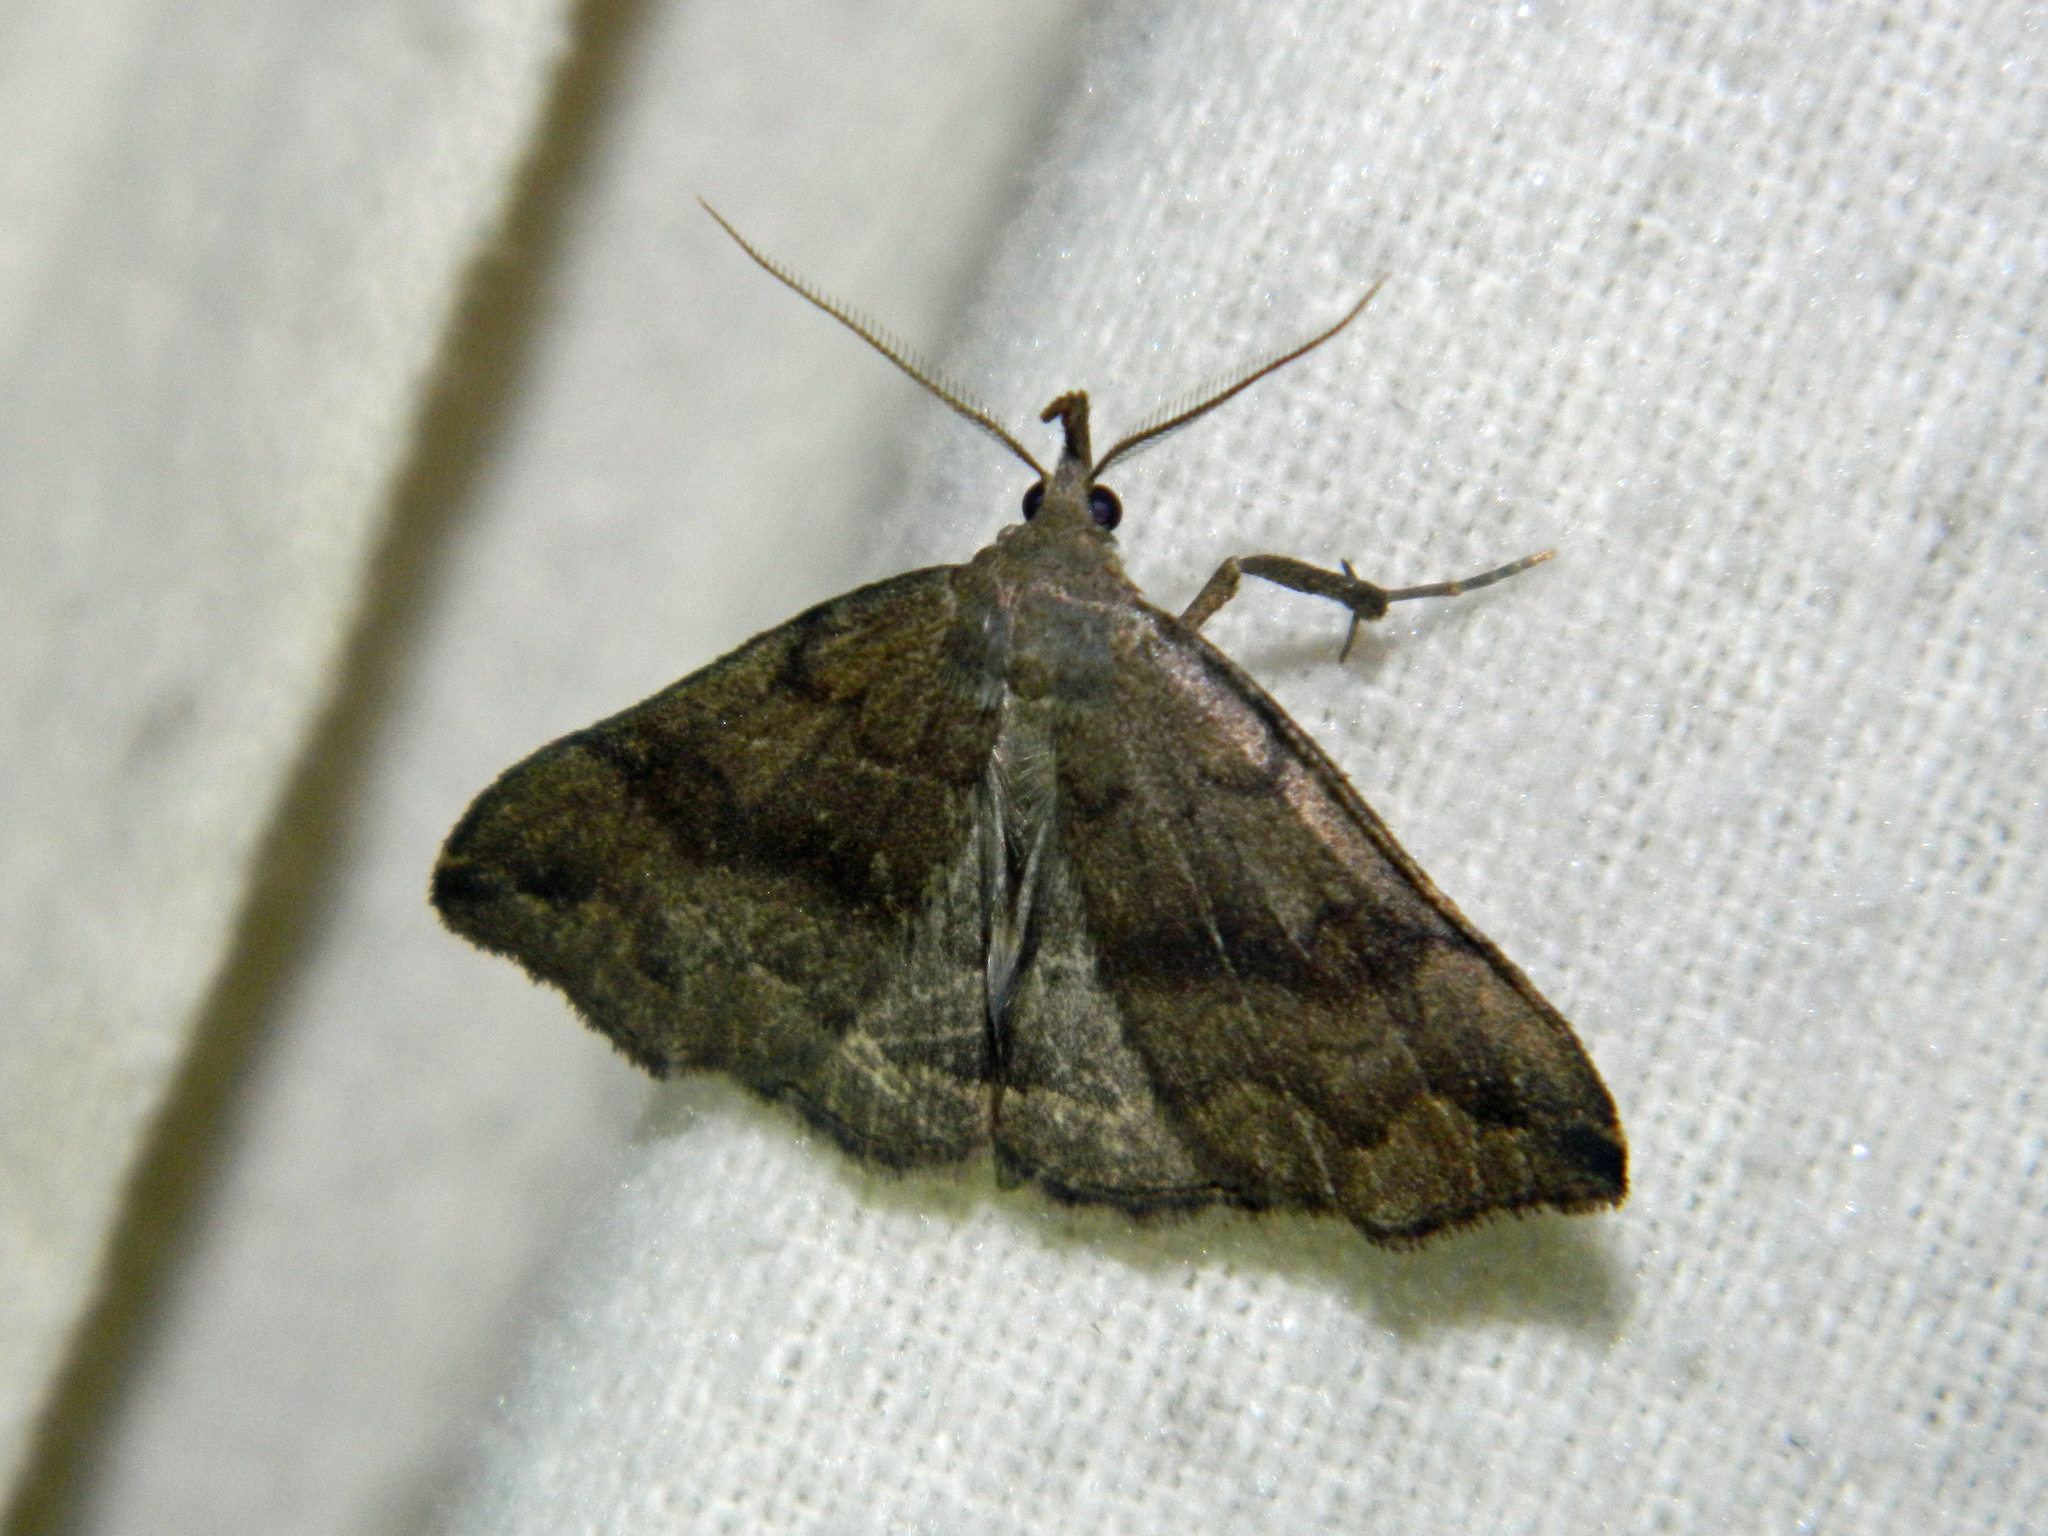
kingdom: Animalia
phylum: Arthropoda
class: Insecta
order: Lepidoptera
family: Erebidae
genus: Phalaenostola
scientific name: Phalaenostola eumelusalis
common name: Dark phalaenostola moth
